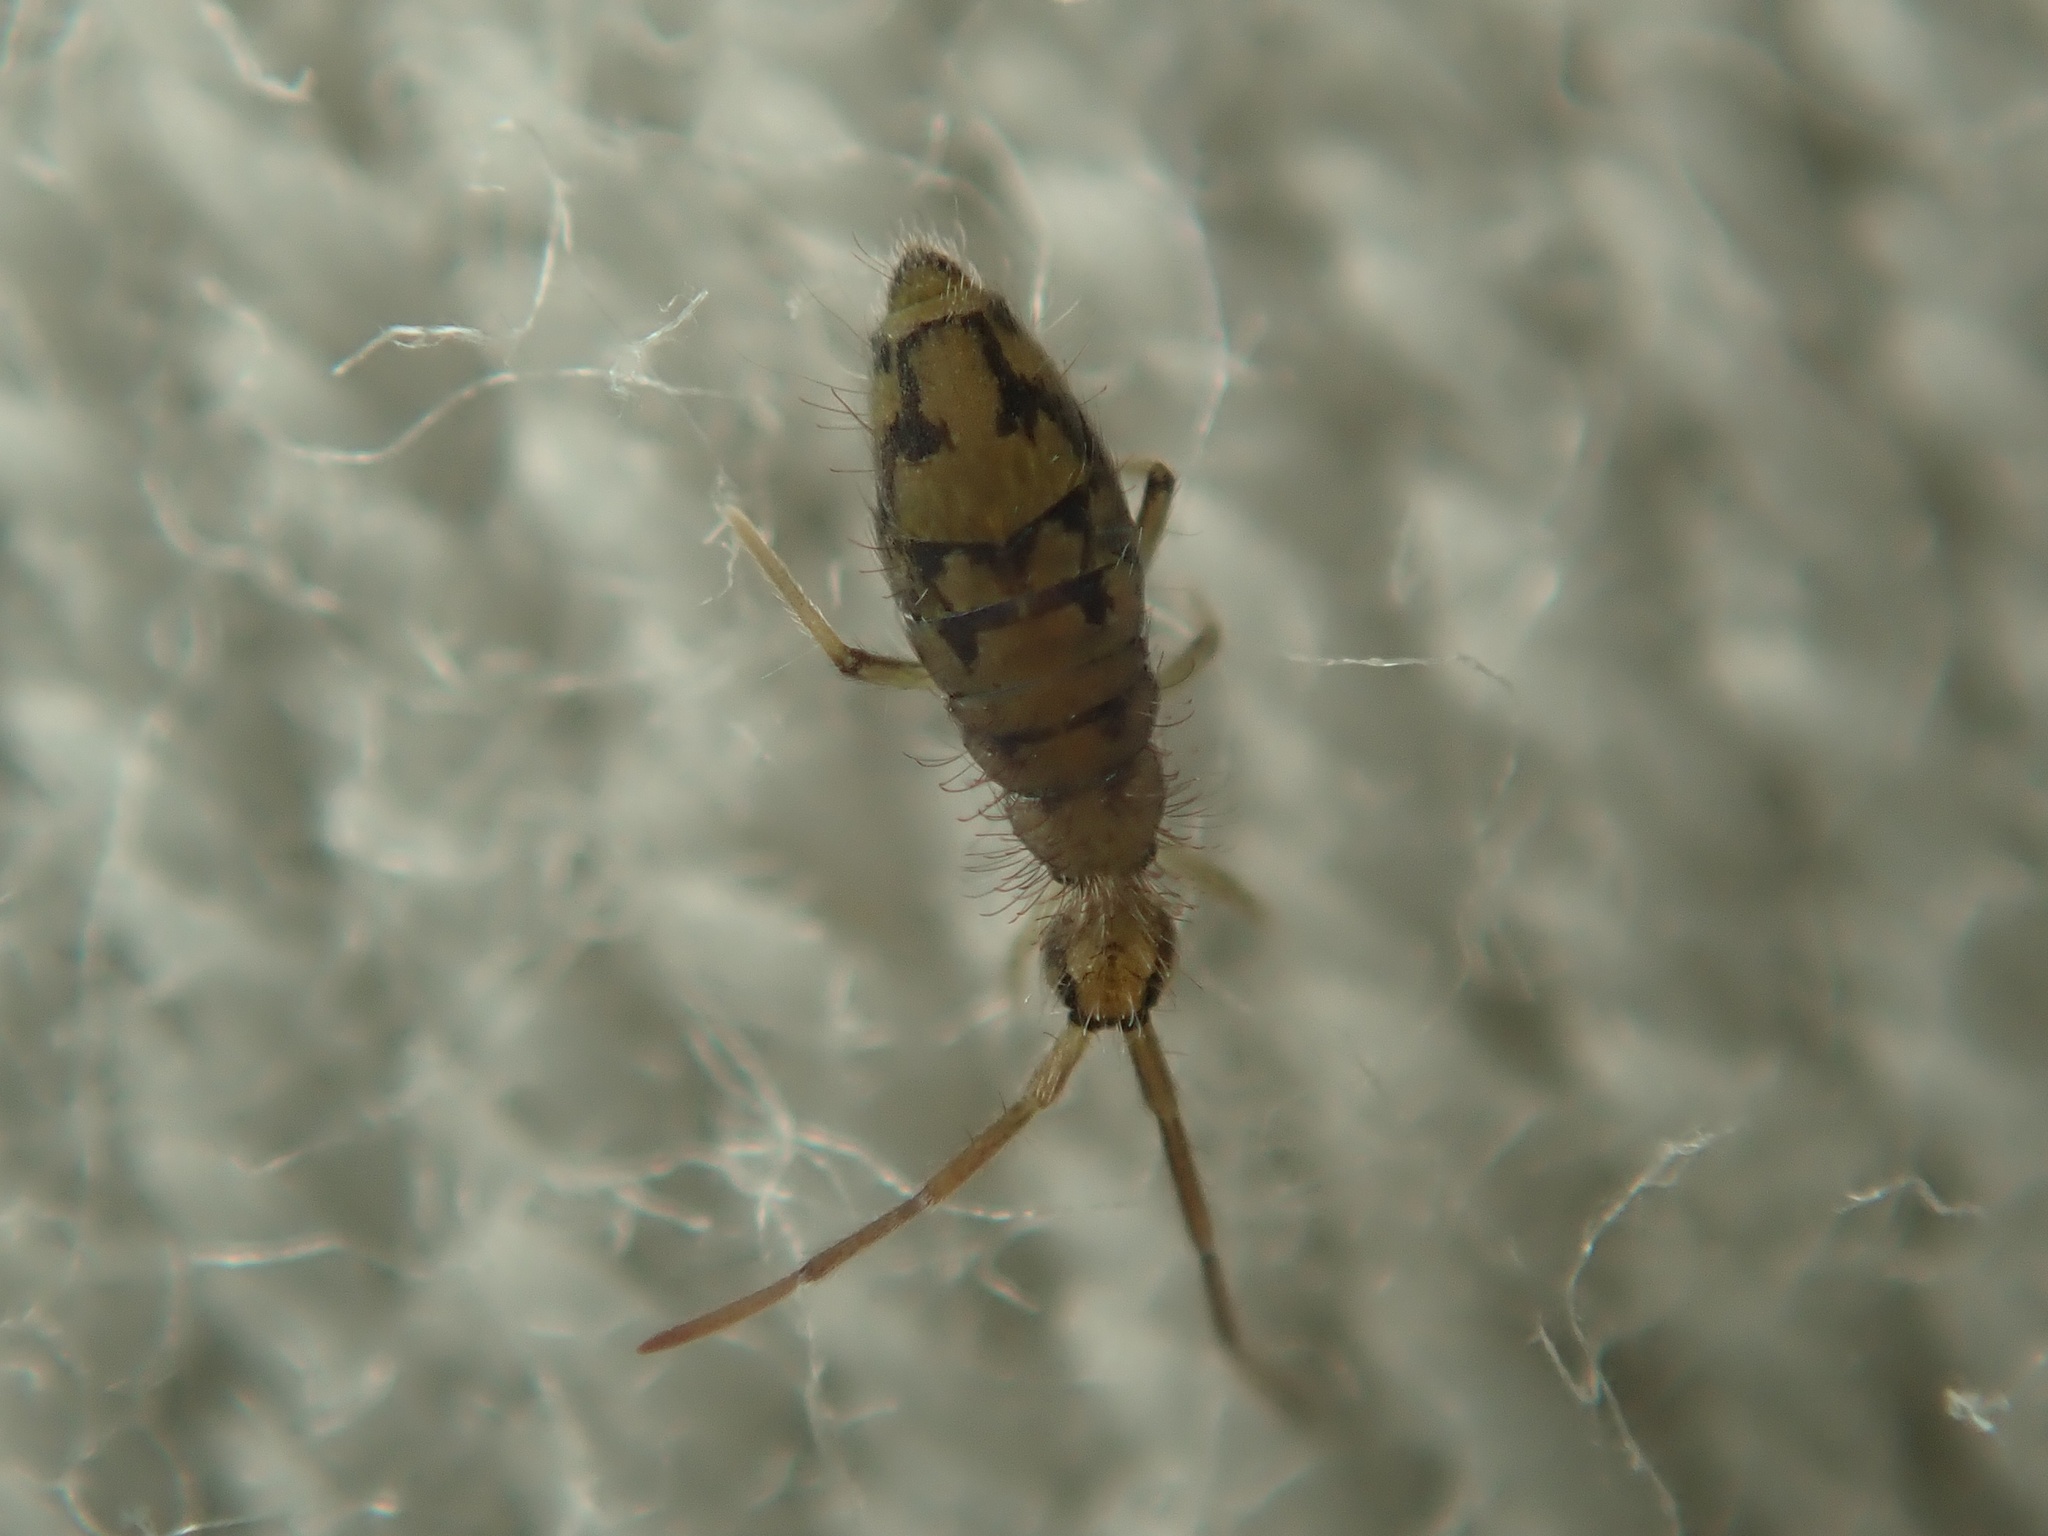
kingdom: Animalia
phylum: Arthropoda
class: Collembola
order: Entomobryomorpha
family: Entomobryidae
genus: Entomobrya
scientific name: Entomobrya nivalis
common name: Cosmopolitan springtail
